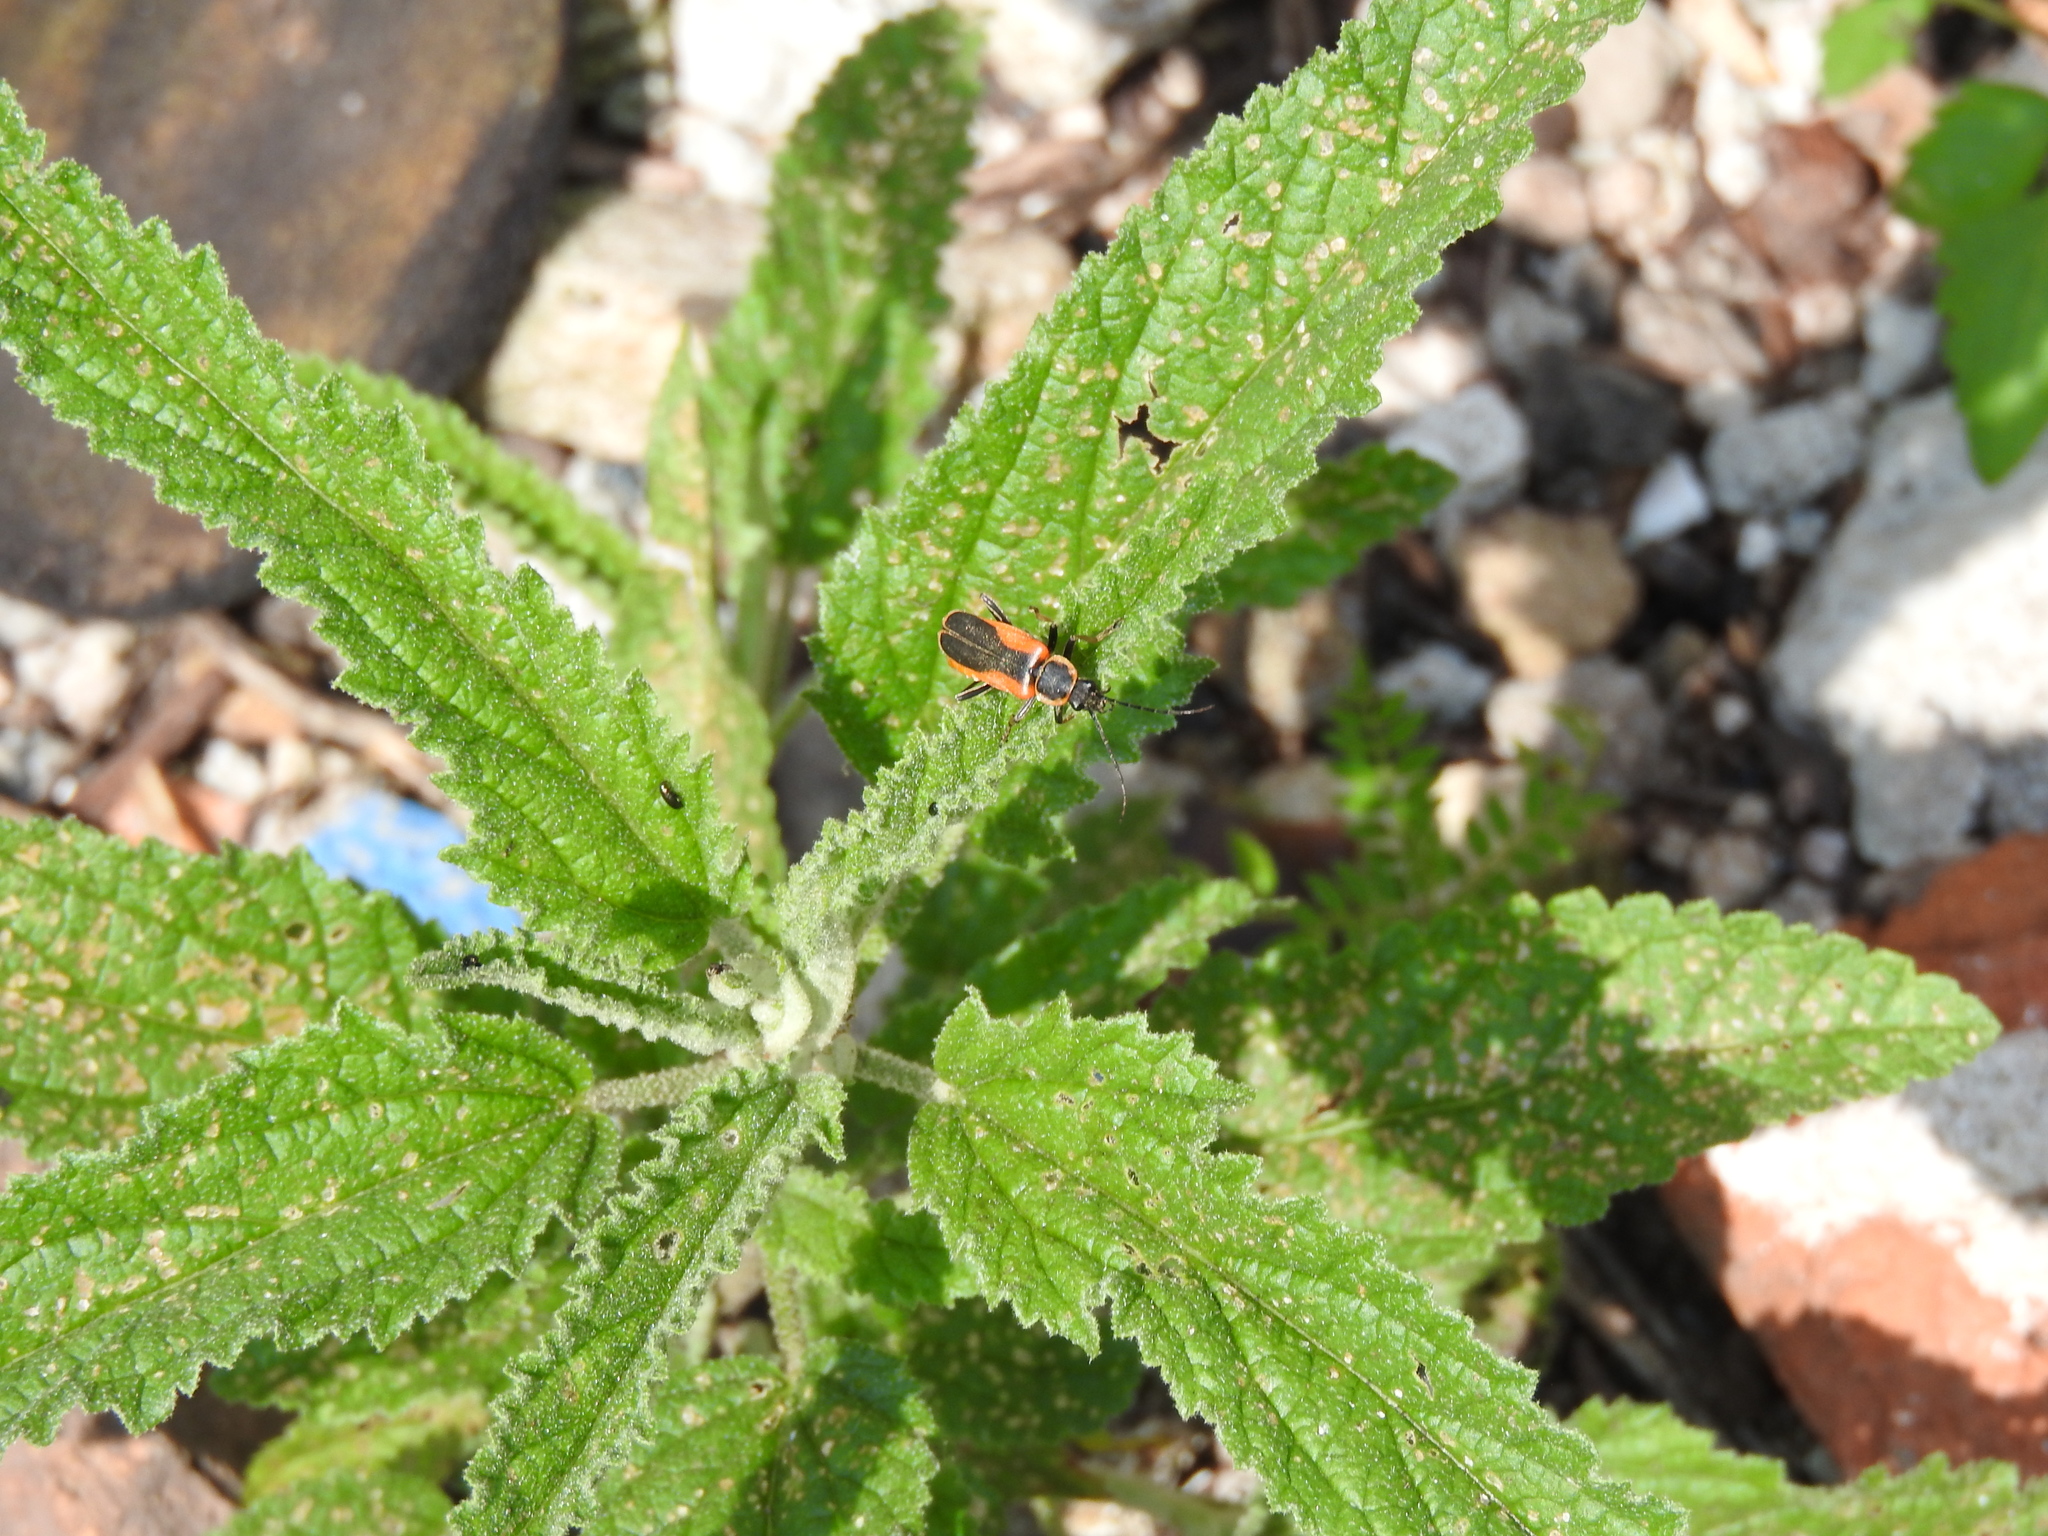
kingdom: Animalia
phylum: Arthropoda
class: Insecta
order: Coleoptera
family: Cantharidae
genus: Chauliognathus
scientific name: Chauliognathus limbicollis
